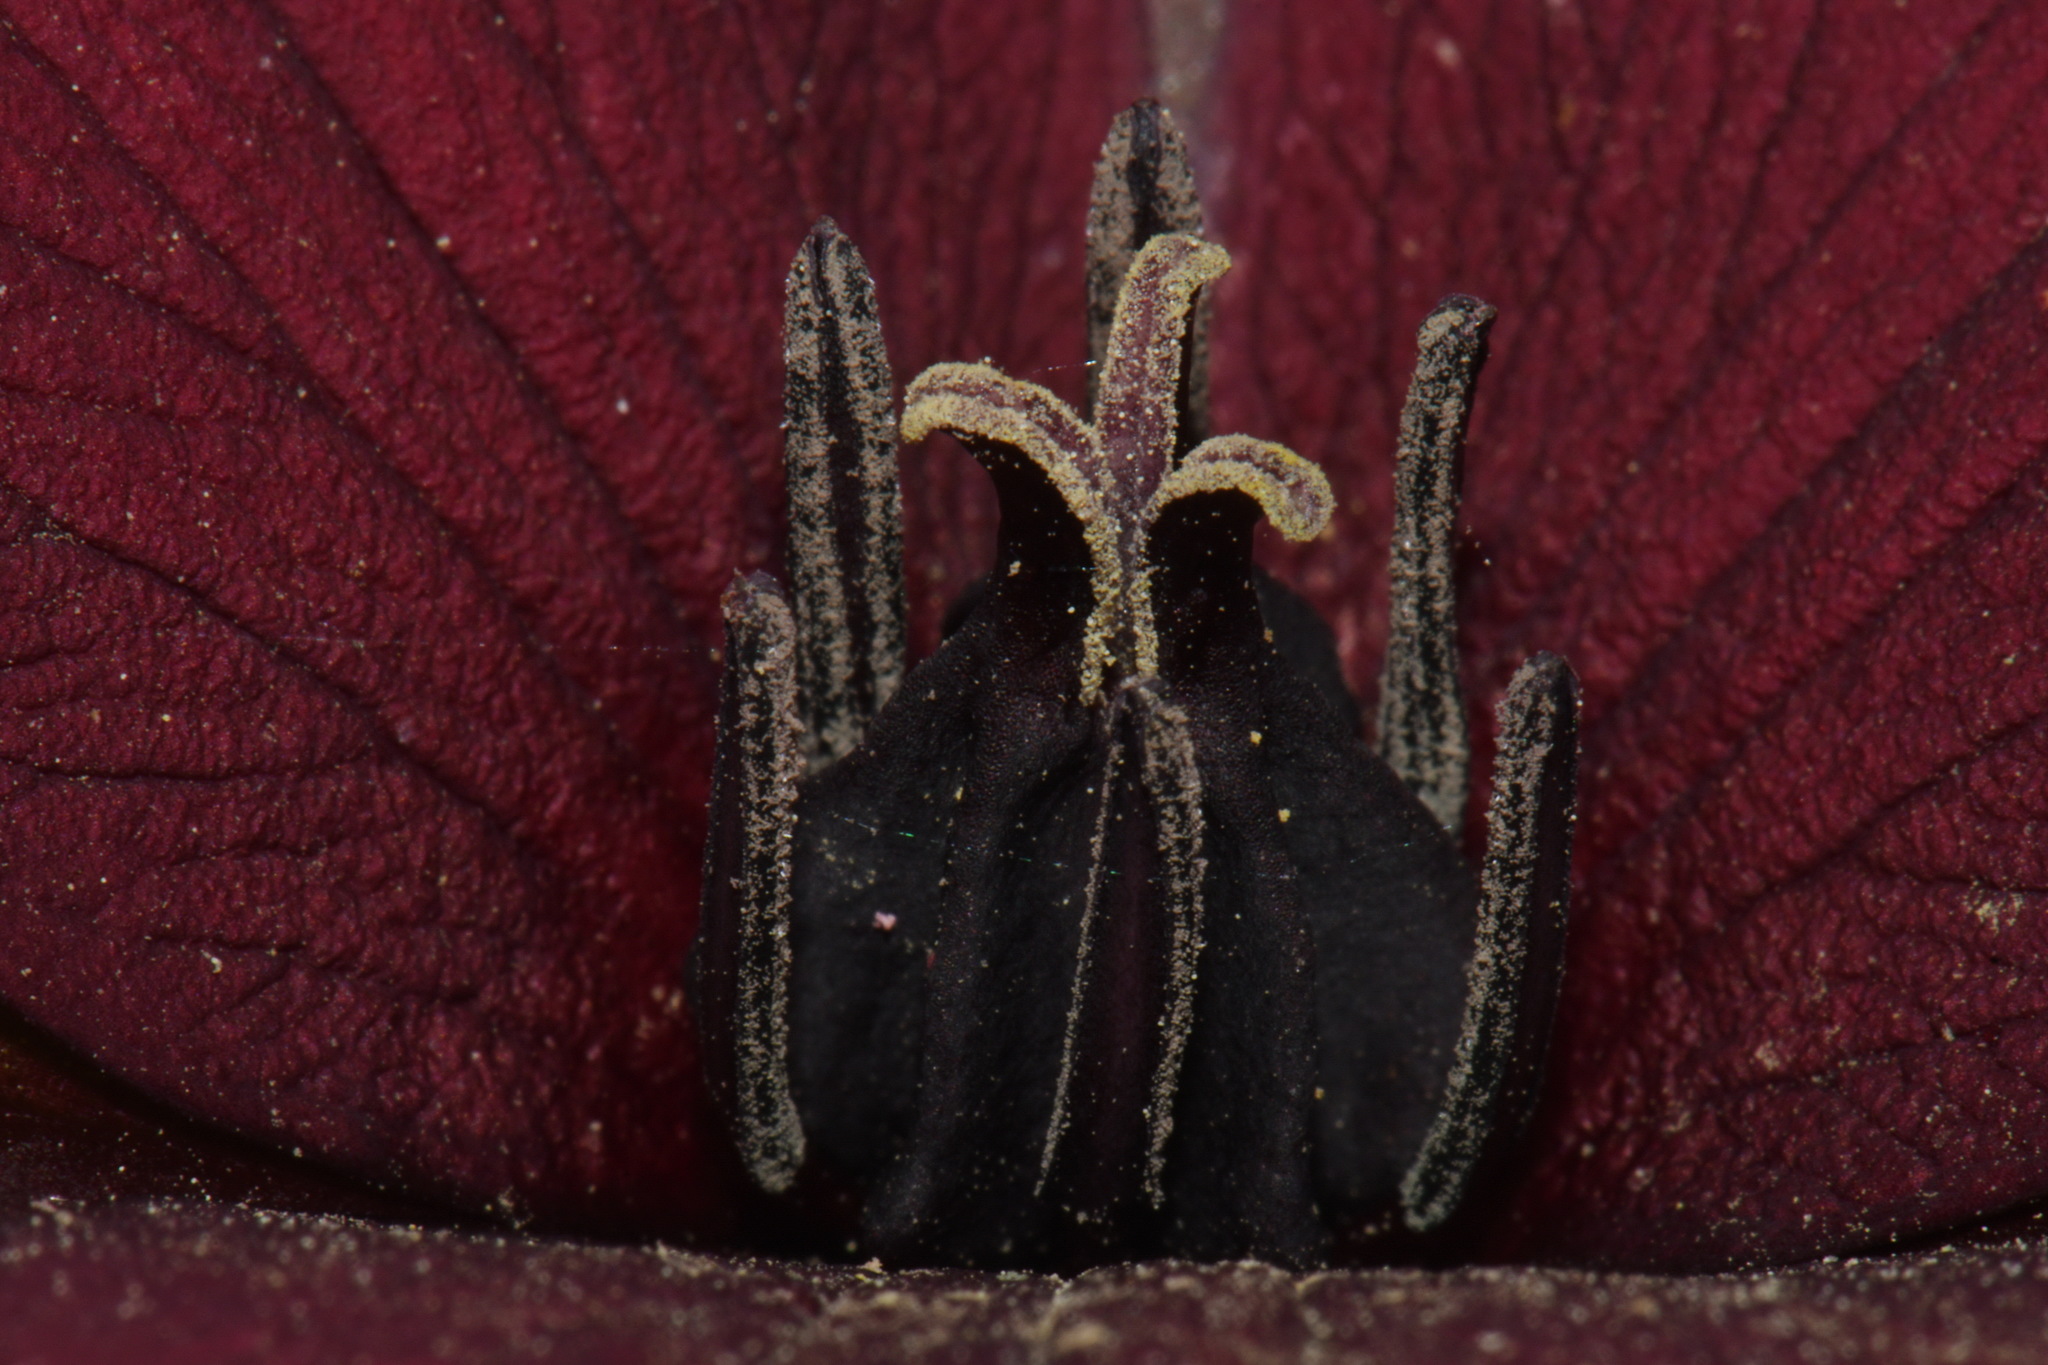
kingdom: Plantae
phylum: Tracheophyta
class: Liliopsida
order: Liliales
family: Melanthiaceae
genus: Trillium
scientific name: Trillium sulcatum
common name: Barksdale trillium
